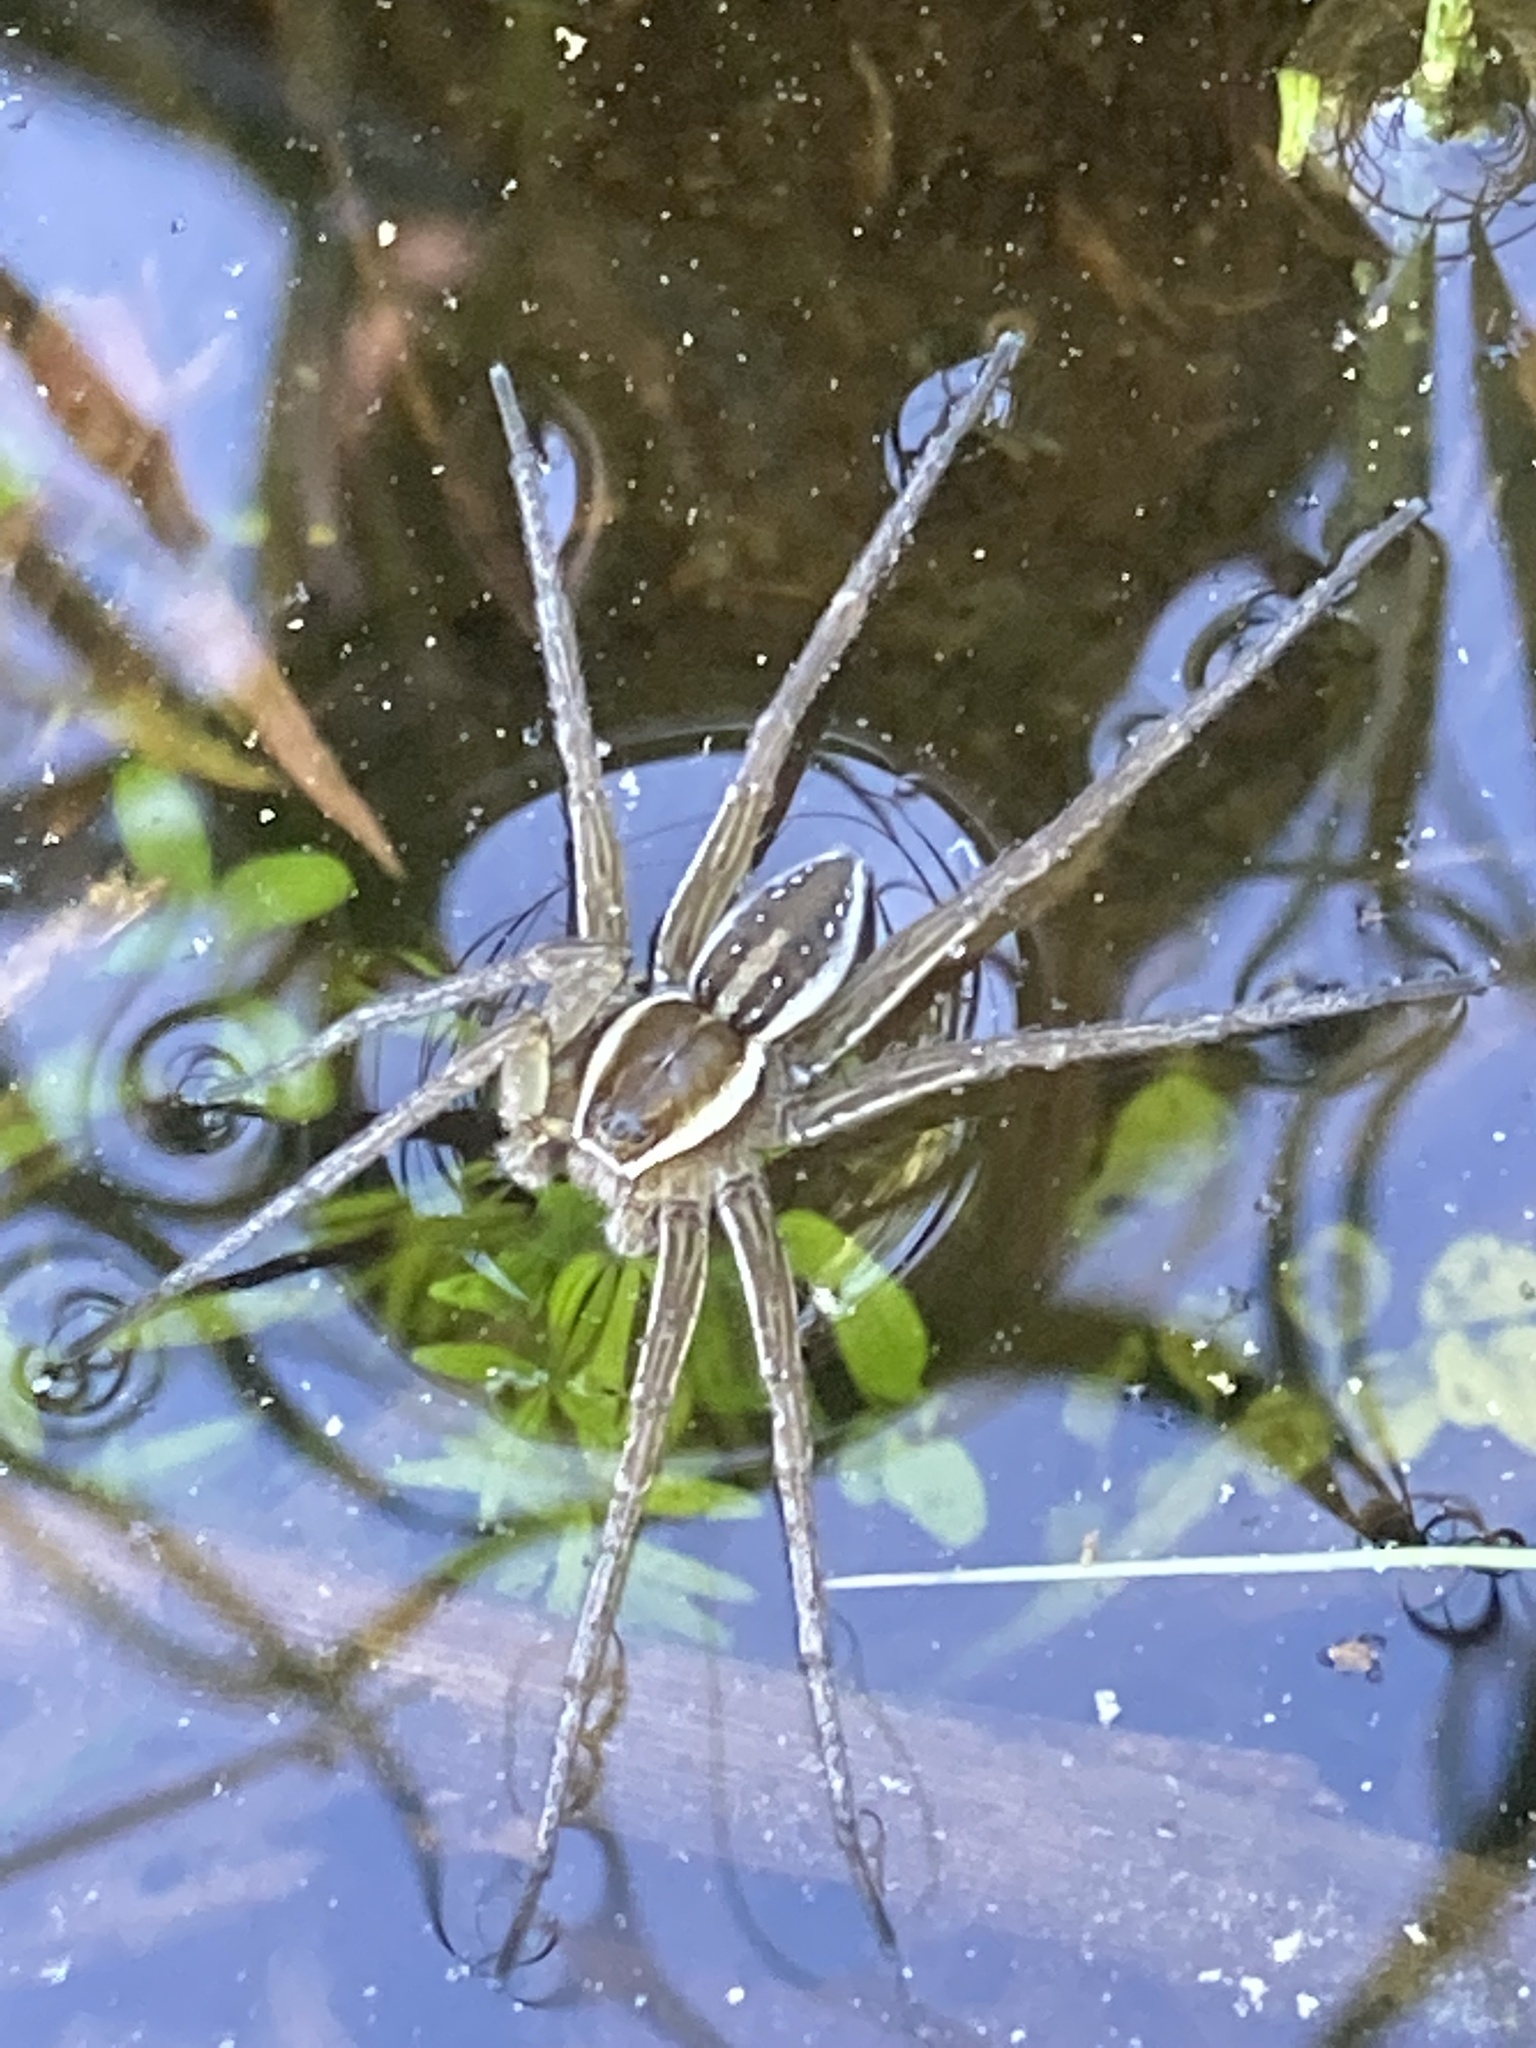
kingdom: Animalia
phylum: Arthropoda
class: Arachnida
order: Araneae
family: Pisauridae
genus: Dolomedes
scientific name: Dolomedes triton
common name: Six-spotted fishing spider
